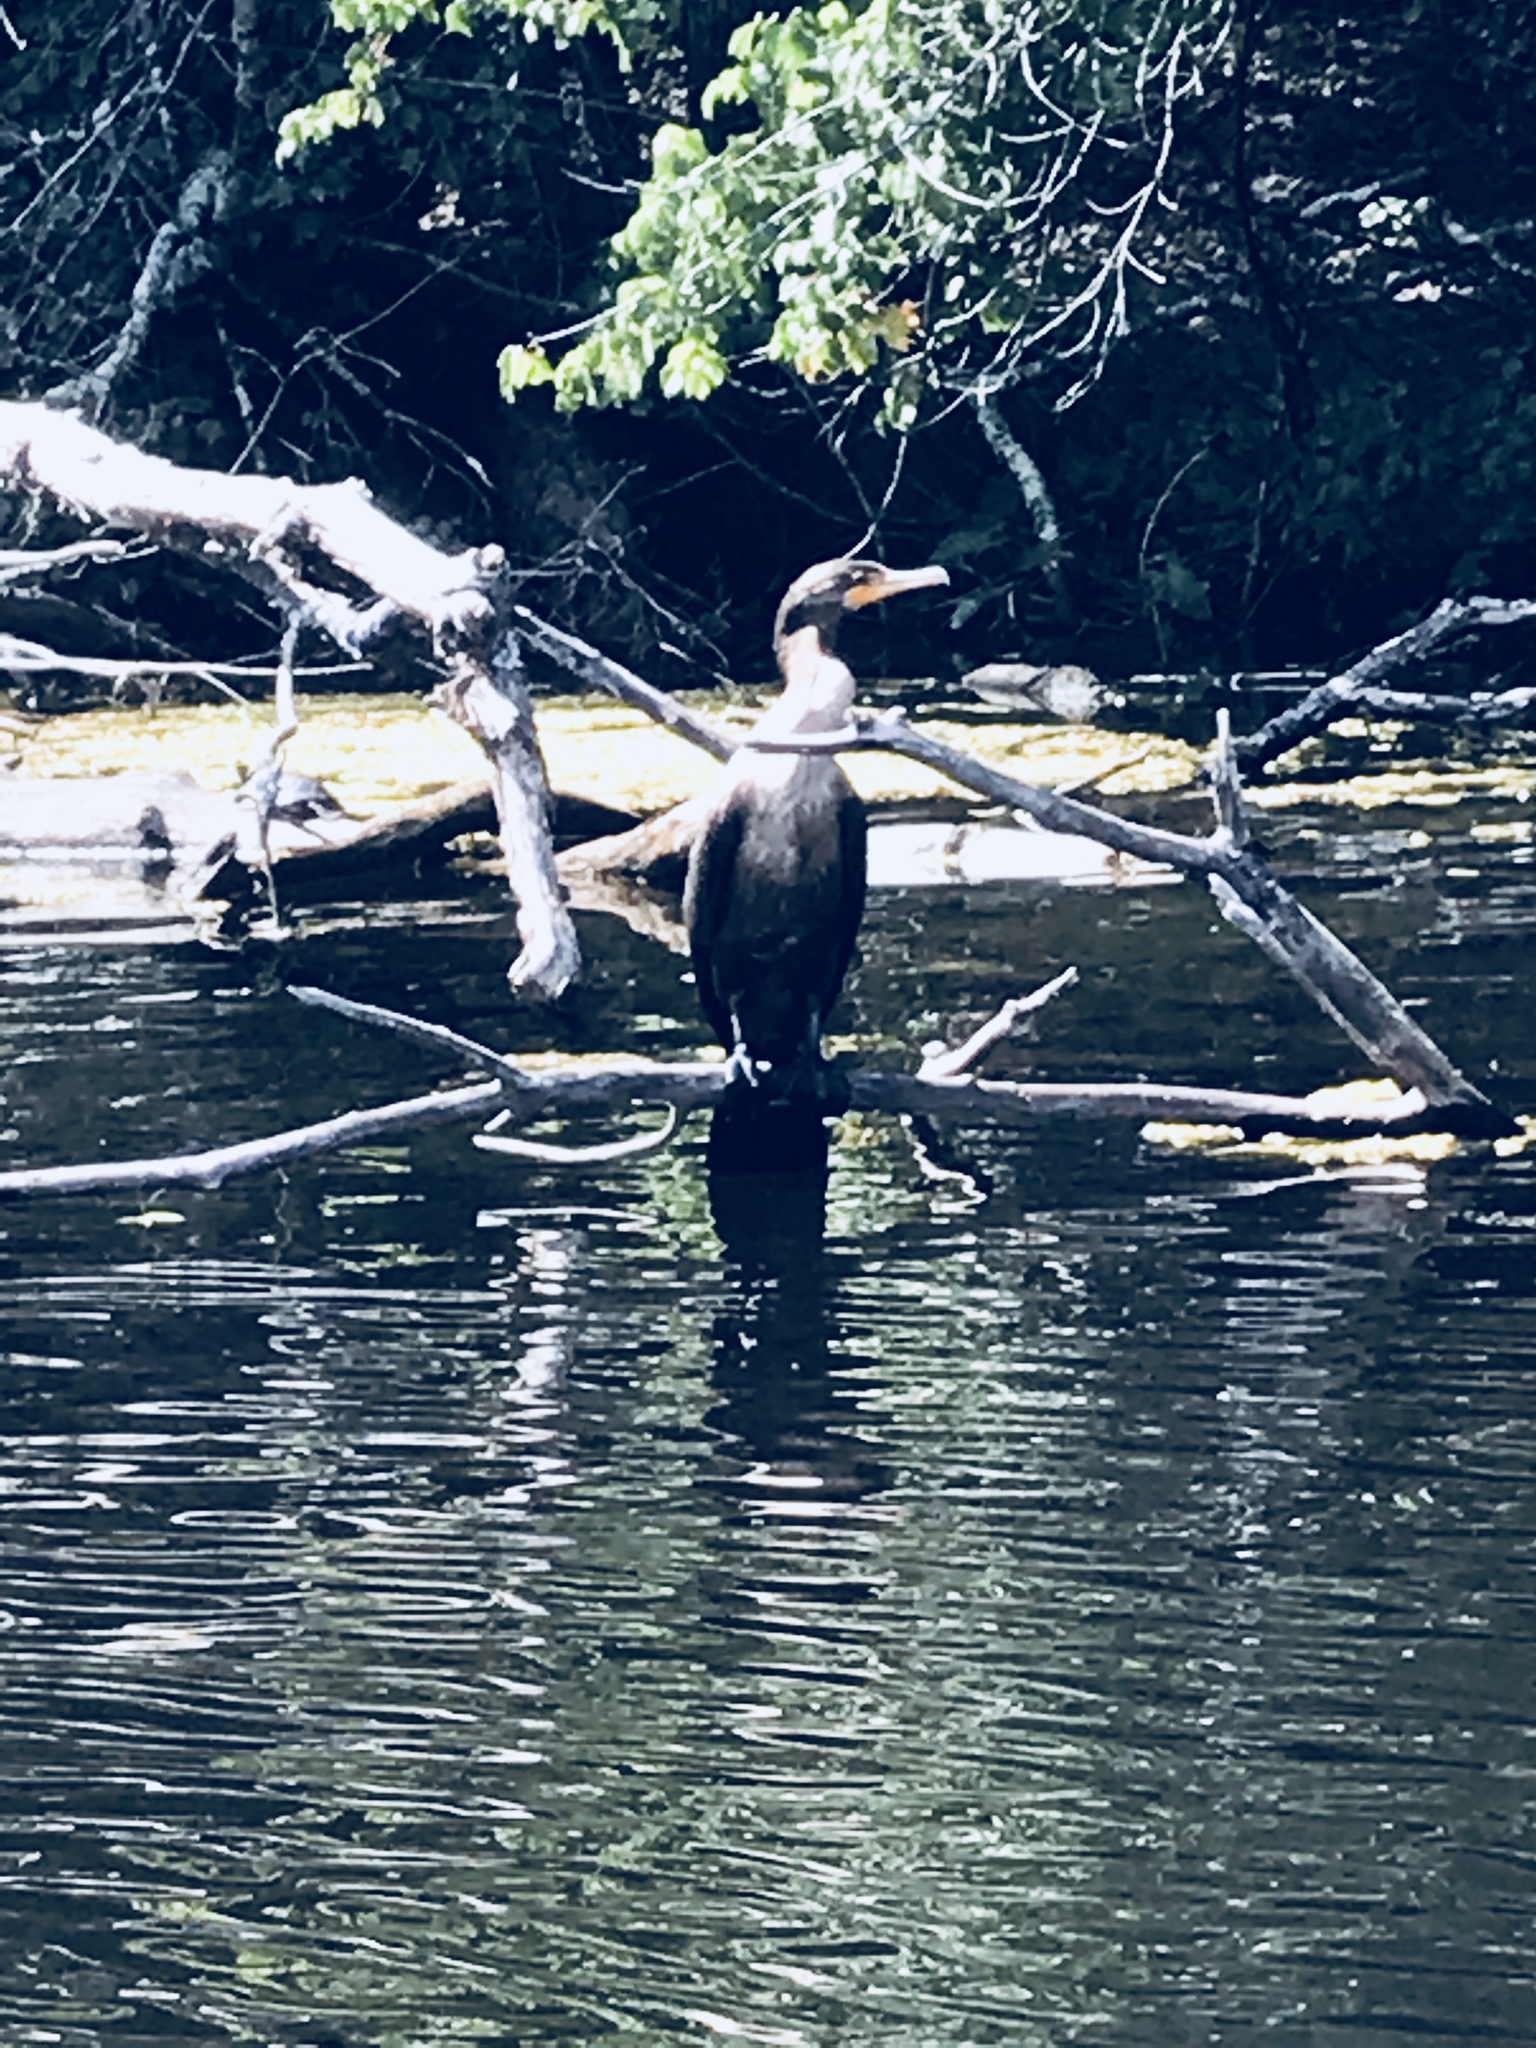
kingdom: Animalia
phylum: Chordata
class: Aves
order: Suliformes
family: Phalacrocoracidae
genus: Phalacrocorax
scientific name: Phalacrocorax auritus
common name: Double-crested cormorant
